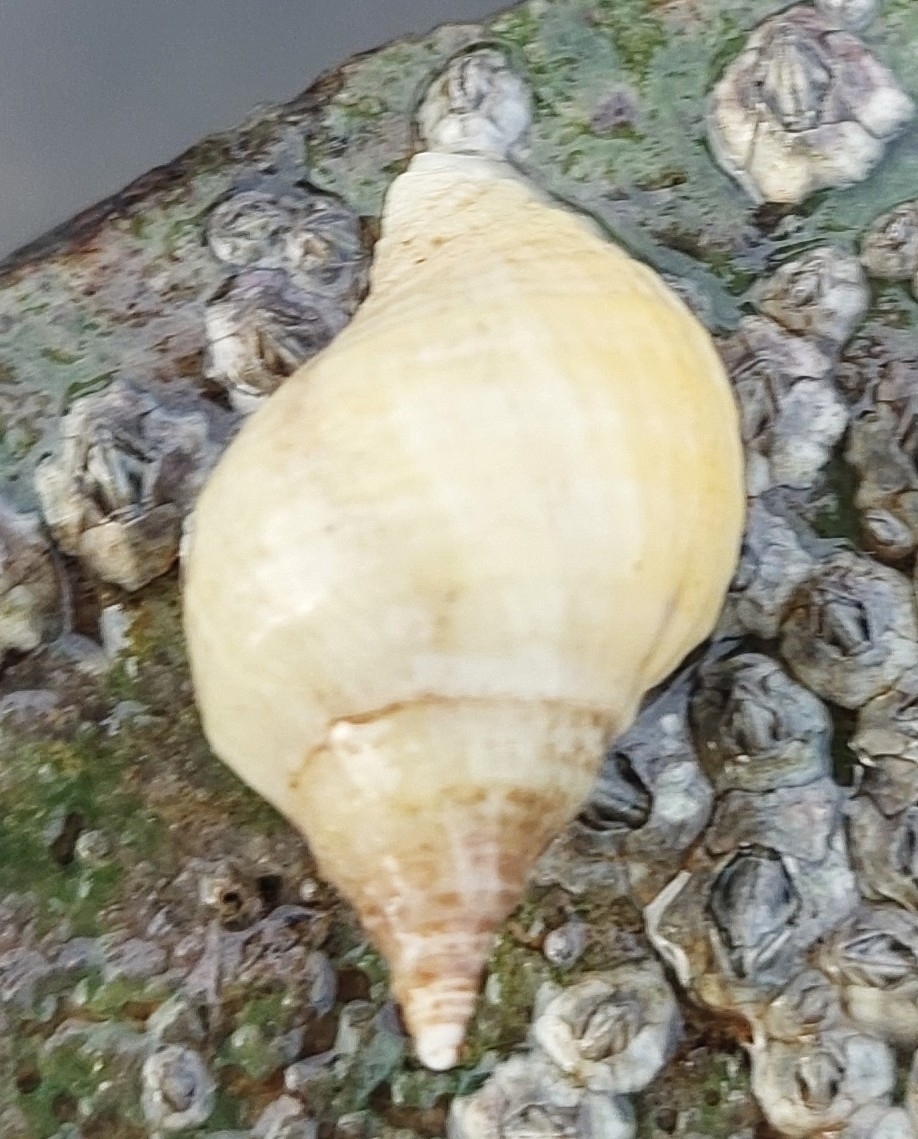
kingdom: Animalia
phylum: Mollusca
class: Gastropoda
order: Neogastropoda
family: Muricidae
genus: Nucella
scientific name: Nucella lapillus
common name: Dog whelk
